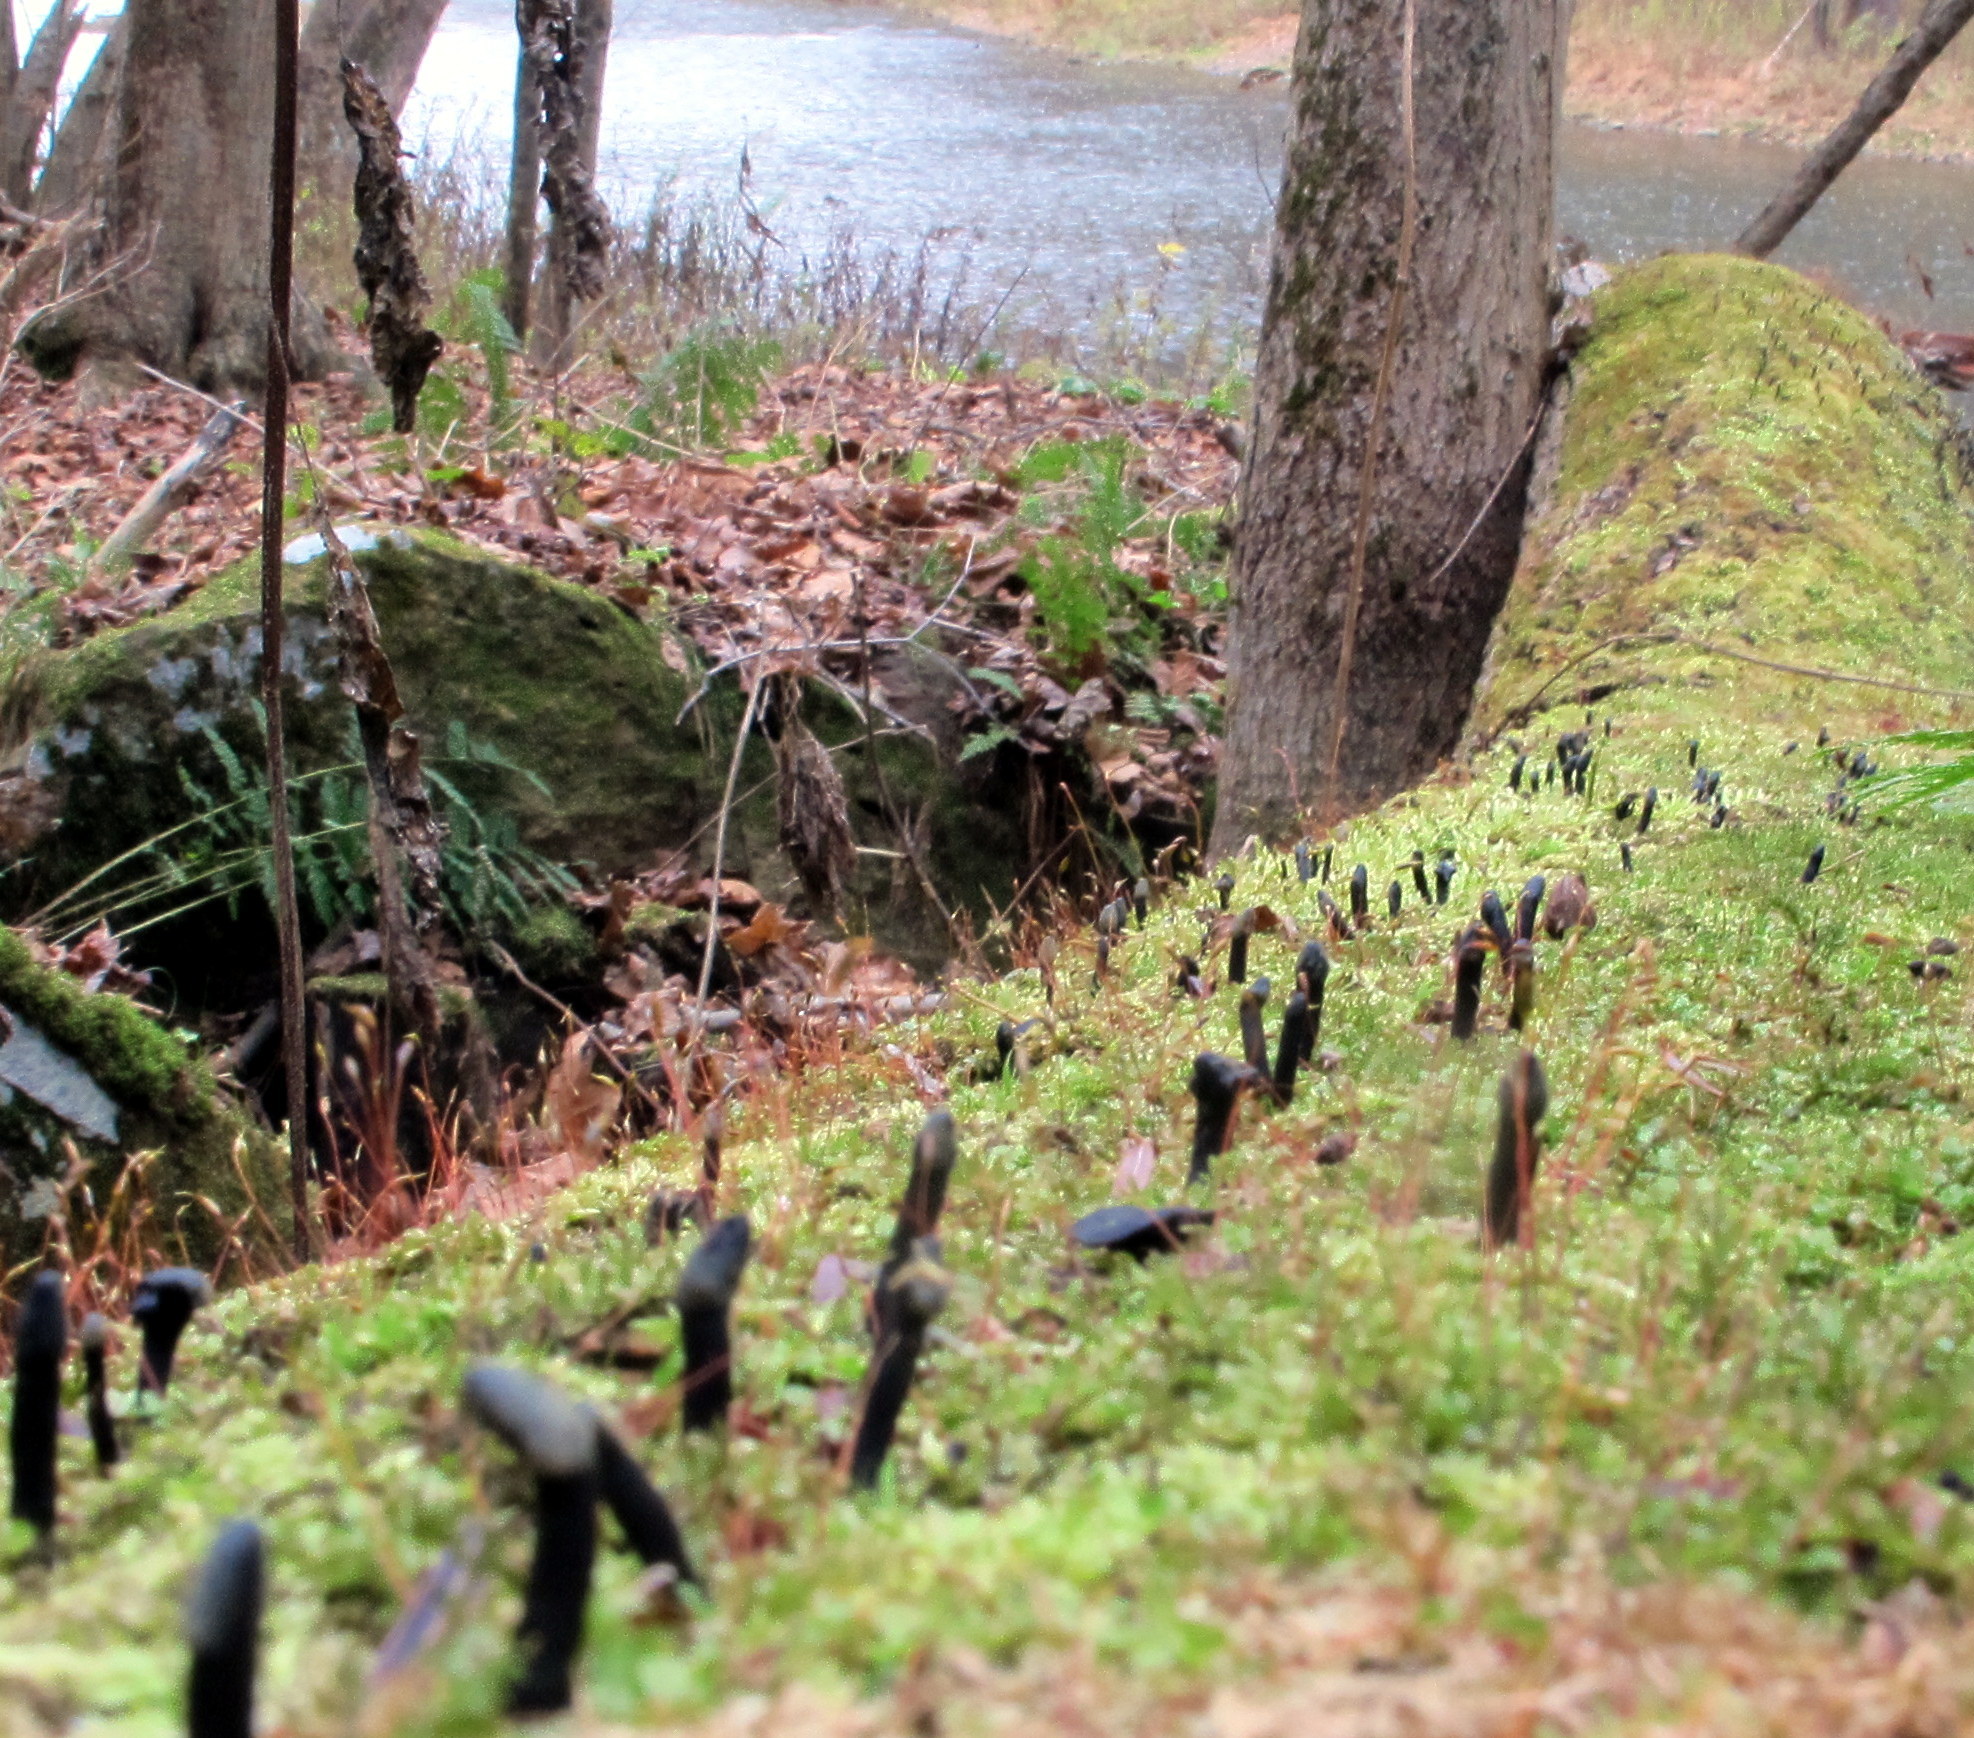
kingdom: Fungi
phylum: Ascomycota
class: Leotiomycetes
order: Helotiales
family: Bulgariaceae
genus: Holwaya
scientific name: Holwaya mucida
